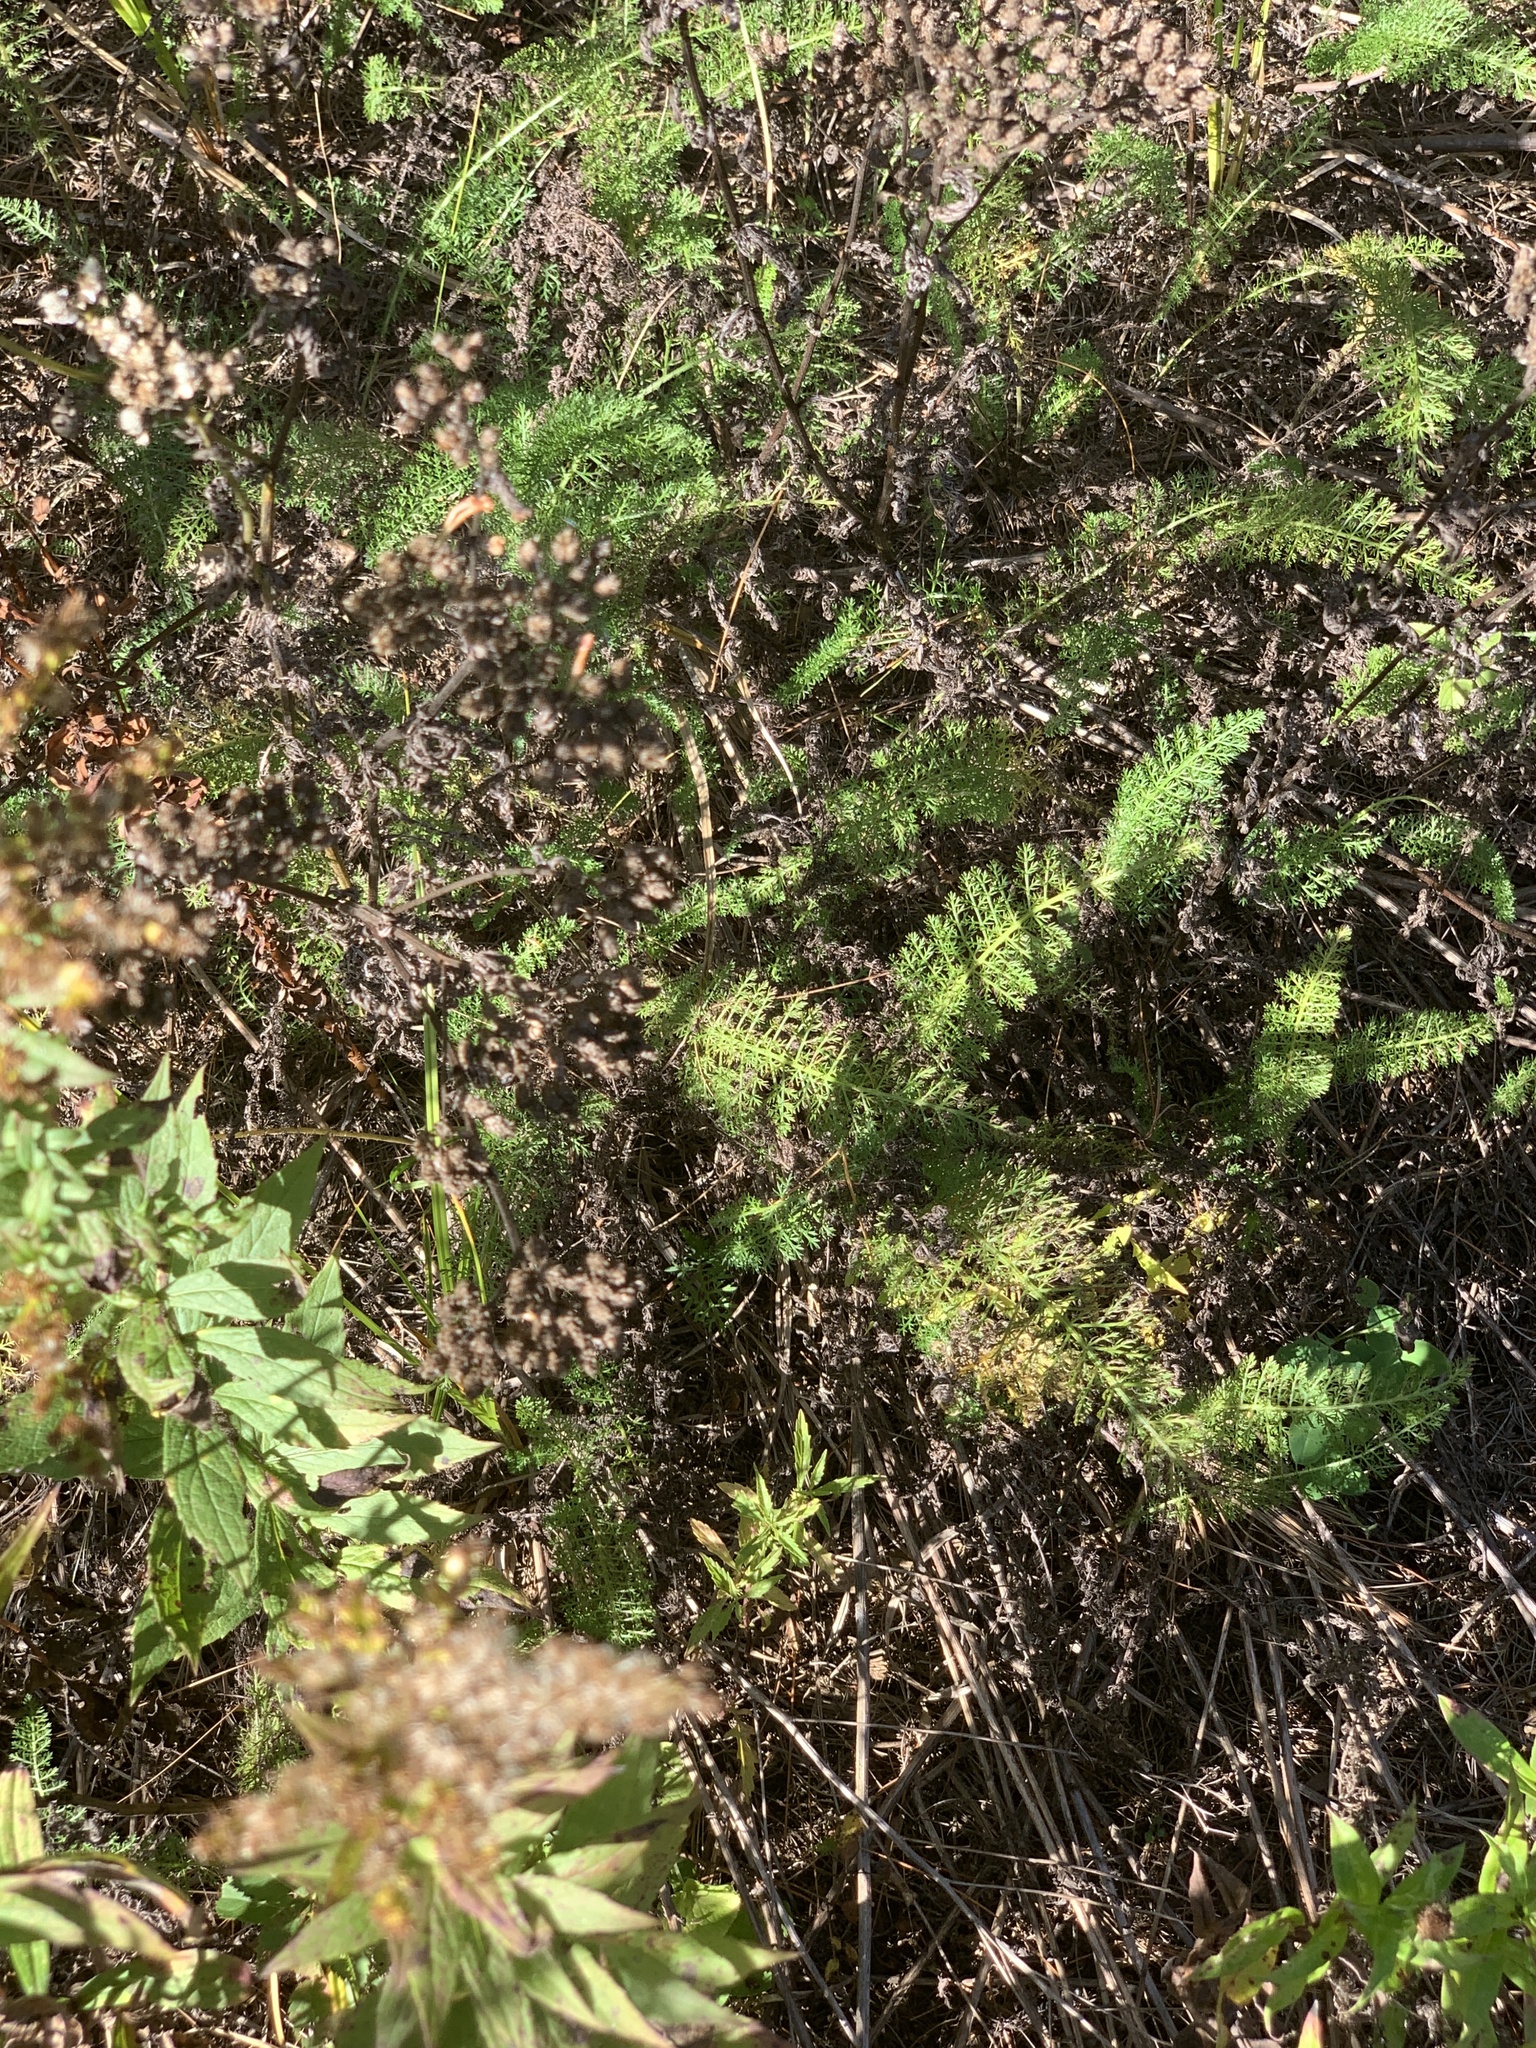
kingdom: Plantae
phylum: Tracheophyta
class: Magnoliopsida
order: Asterales
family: Asteraceae
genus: Achillea
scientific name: Achillea millefolium
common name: Yarrow
